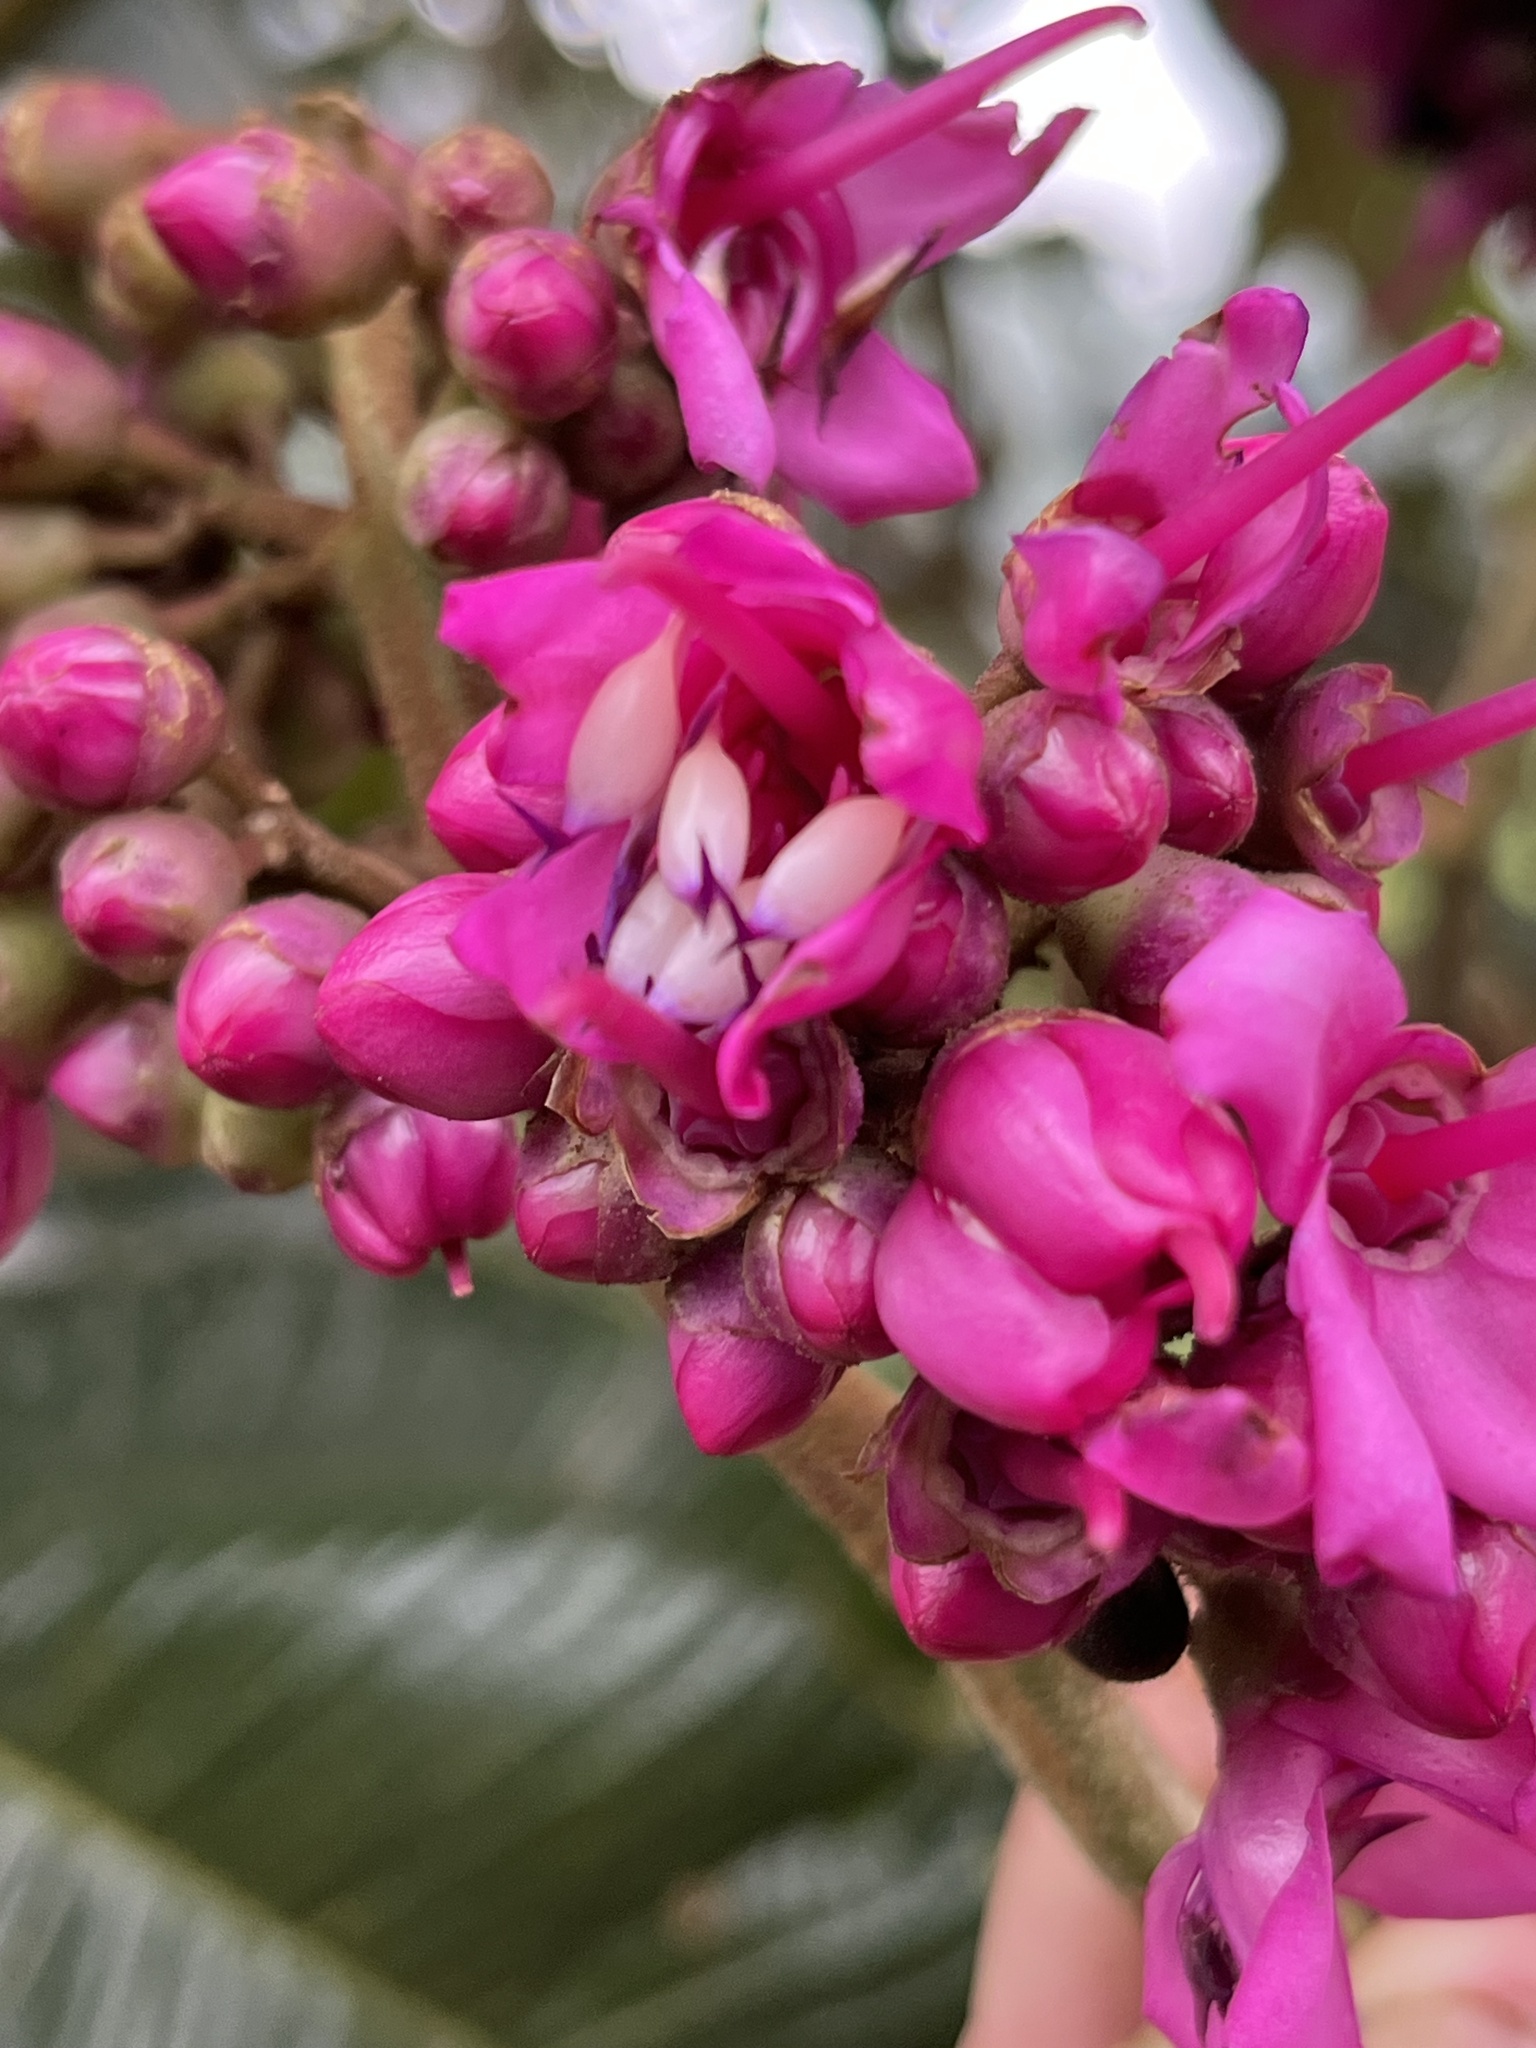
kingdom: Plantae
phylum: Tracheophyta
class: Magnoliopsida
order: Myrtales
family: Melastomataceae
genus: Meriania
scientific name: Meriania macrophylla
